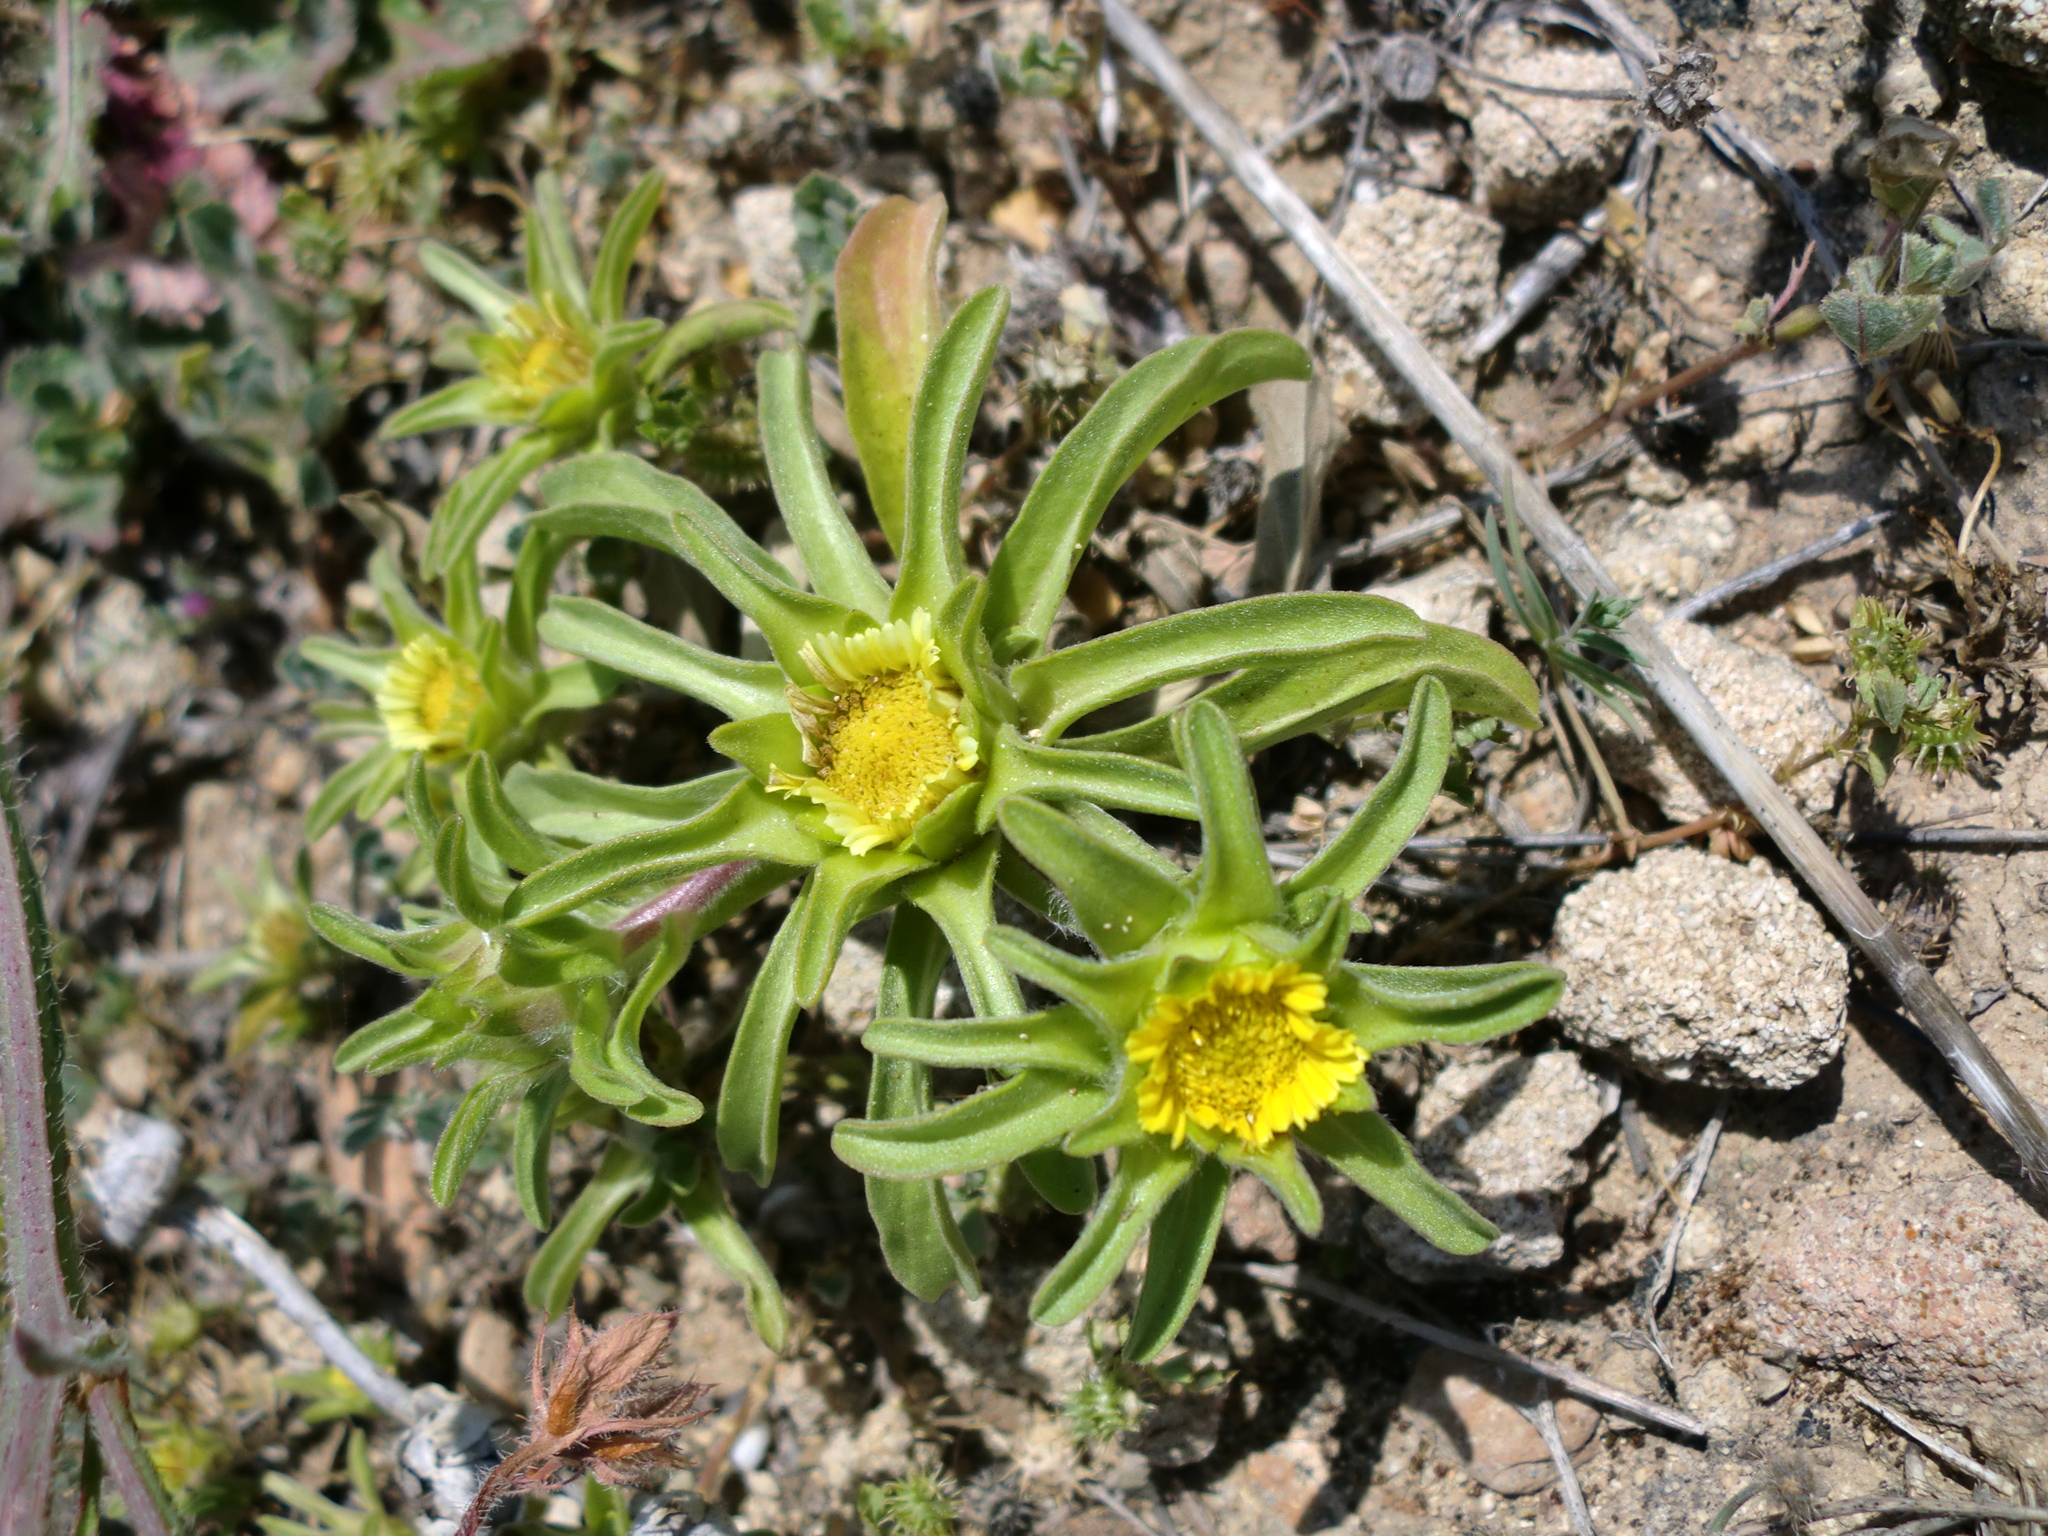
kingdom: Plantae
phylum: Tracheophyta
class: Magnoliopsida
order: Asterales
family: Asteraceae
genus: Asteriscus
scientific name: Asteriscus aquaticus
